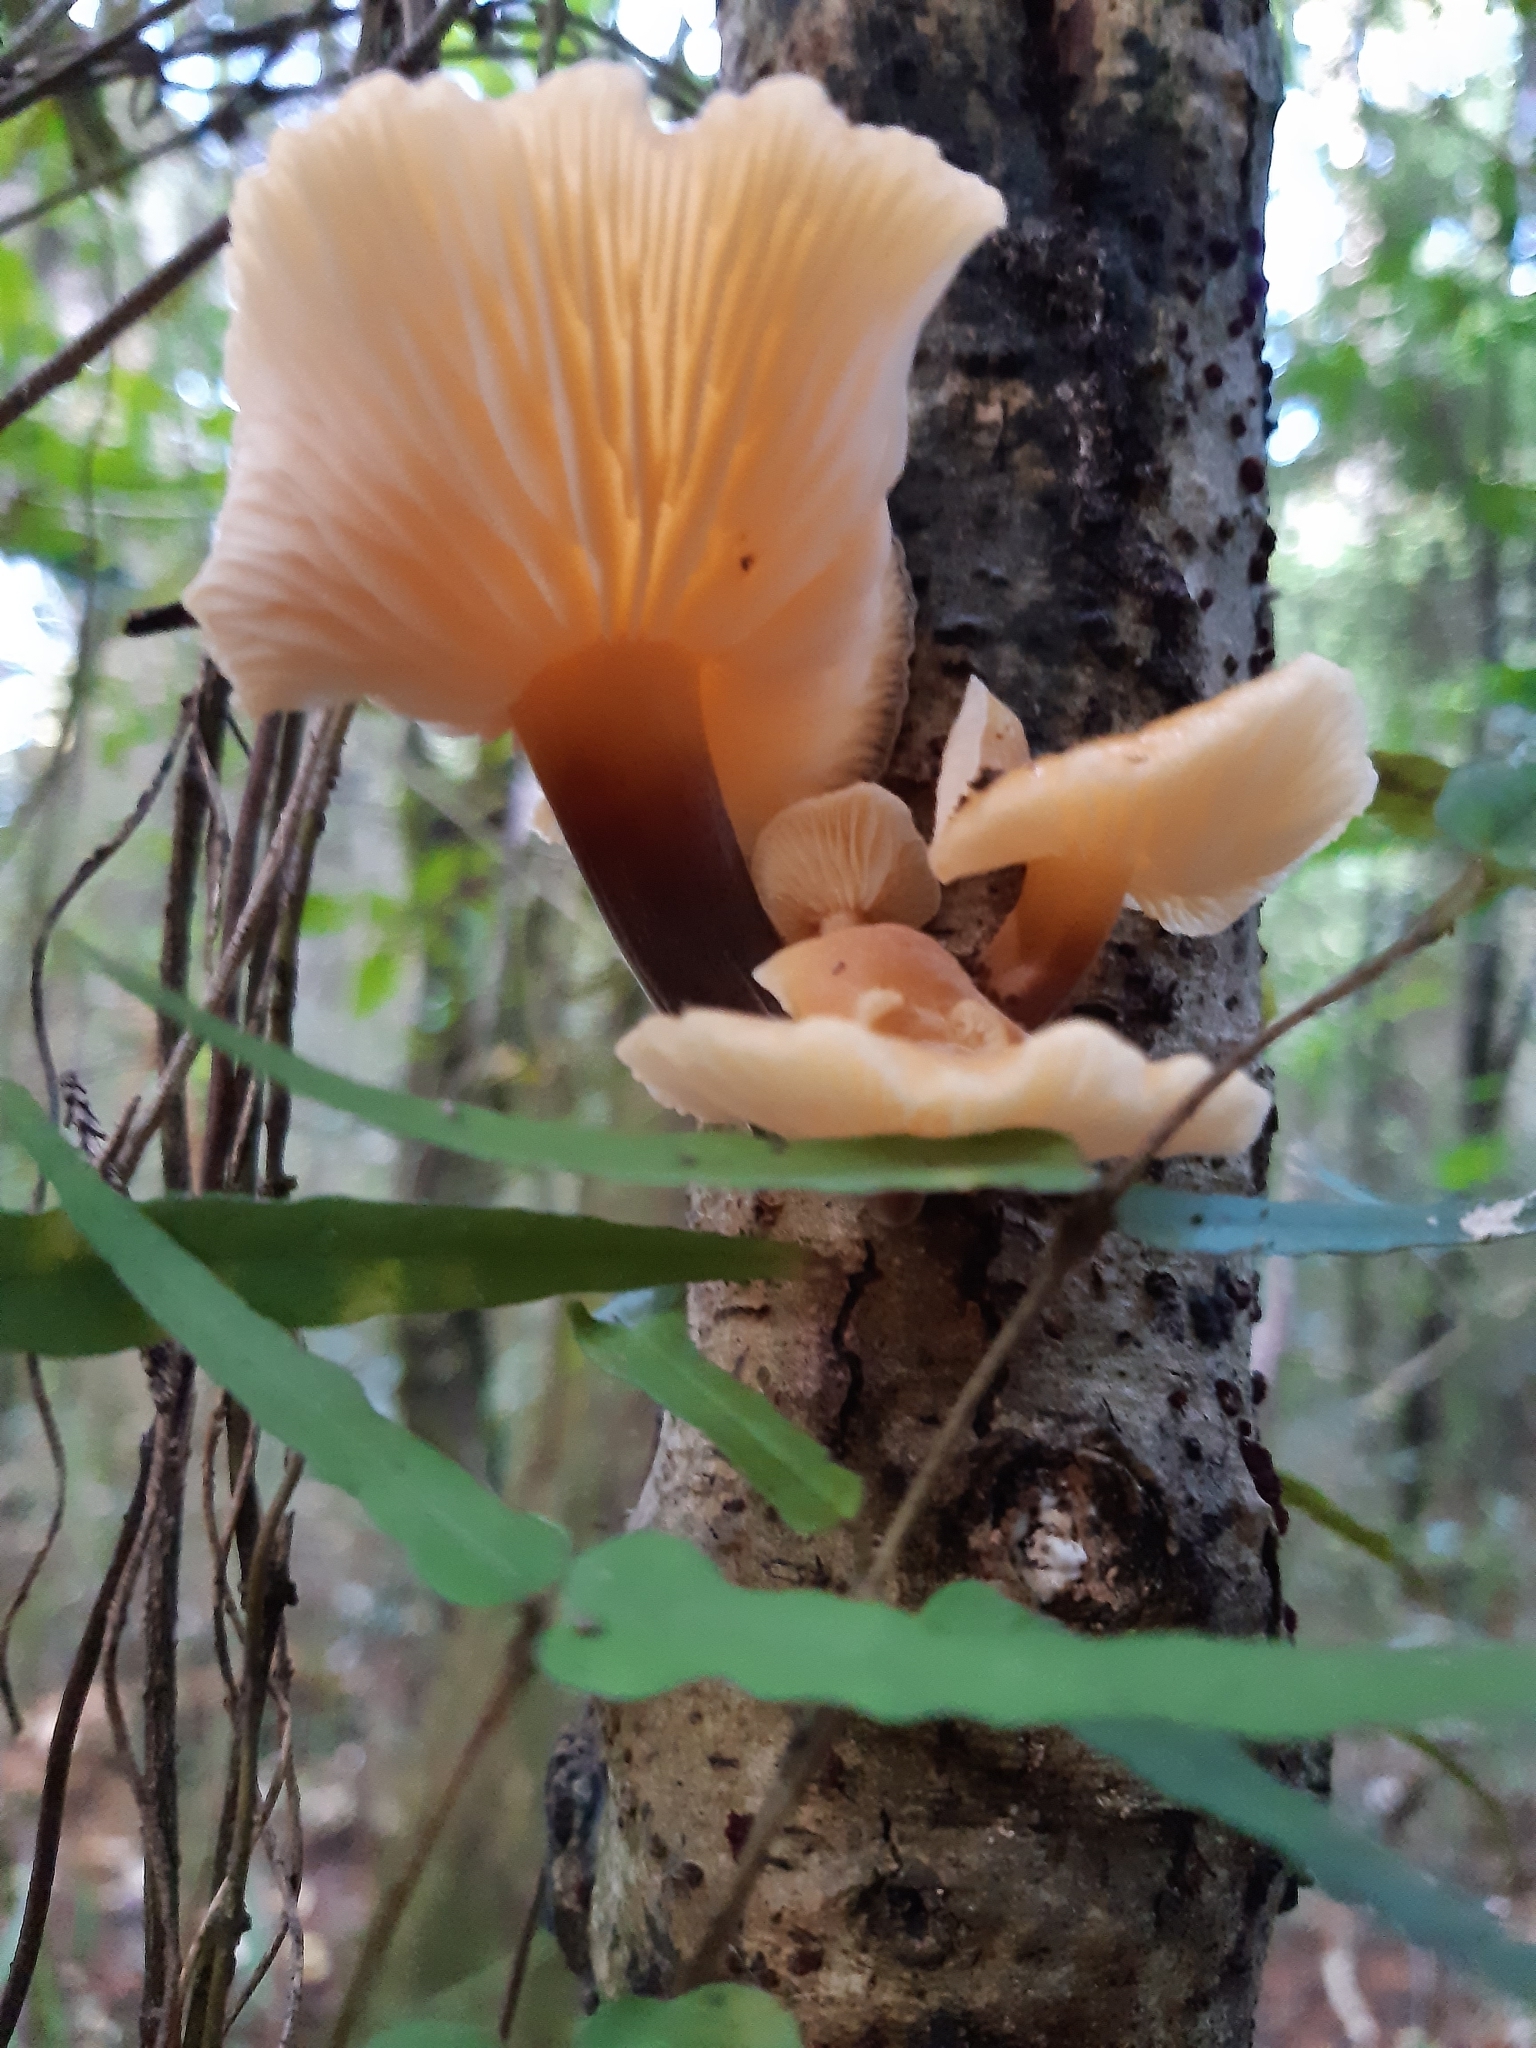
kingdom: Fungi
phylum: Basidiomycota
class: Agaricomycetes
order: Agaricales
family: Physalacriaceae
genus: Flammulina
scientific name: Flammulina velutipes
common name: Velvet shank
